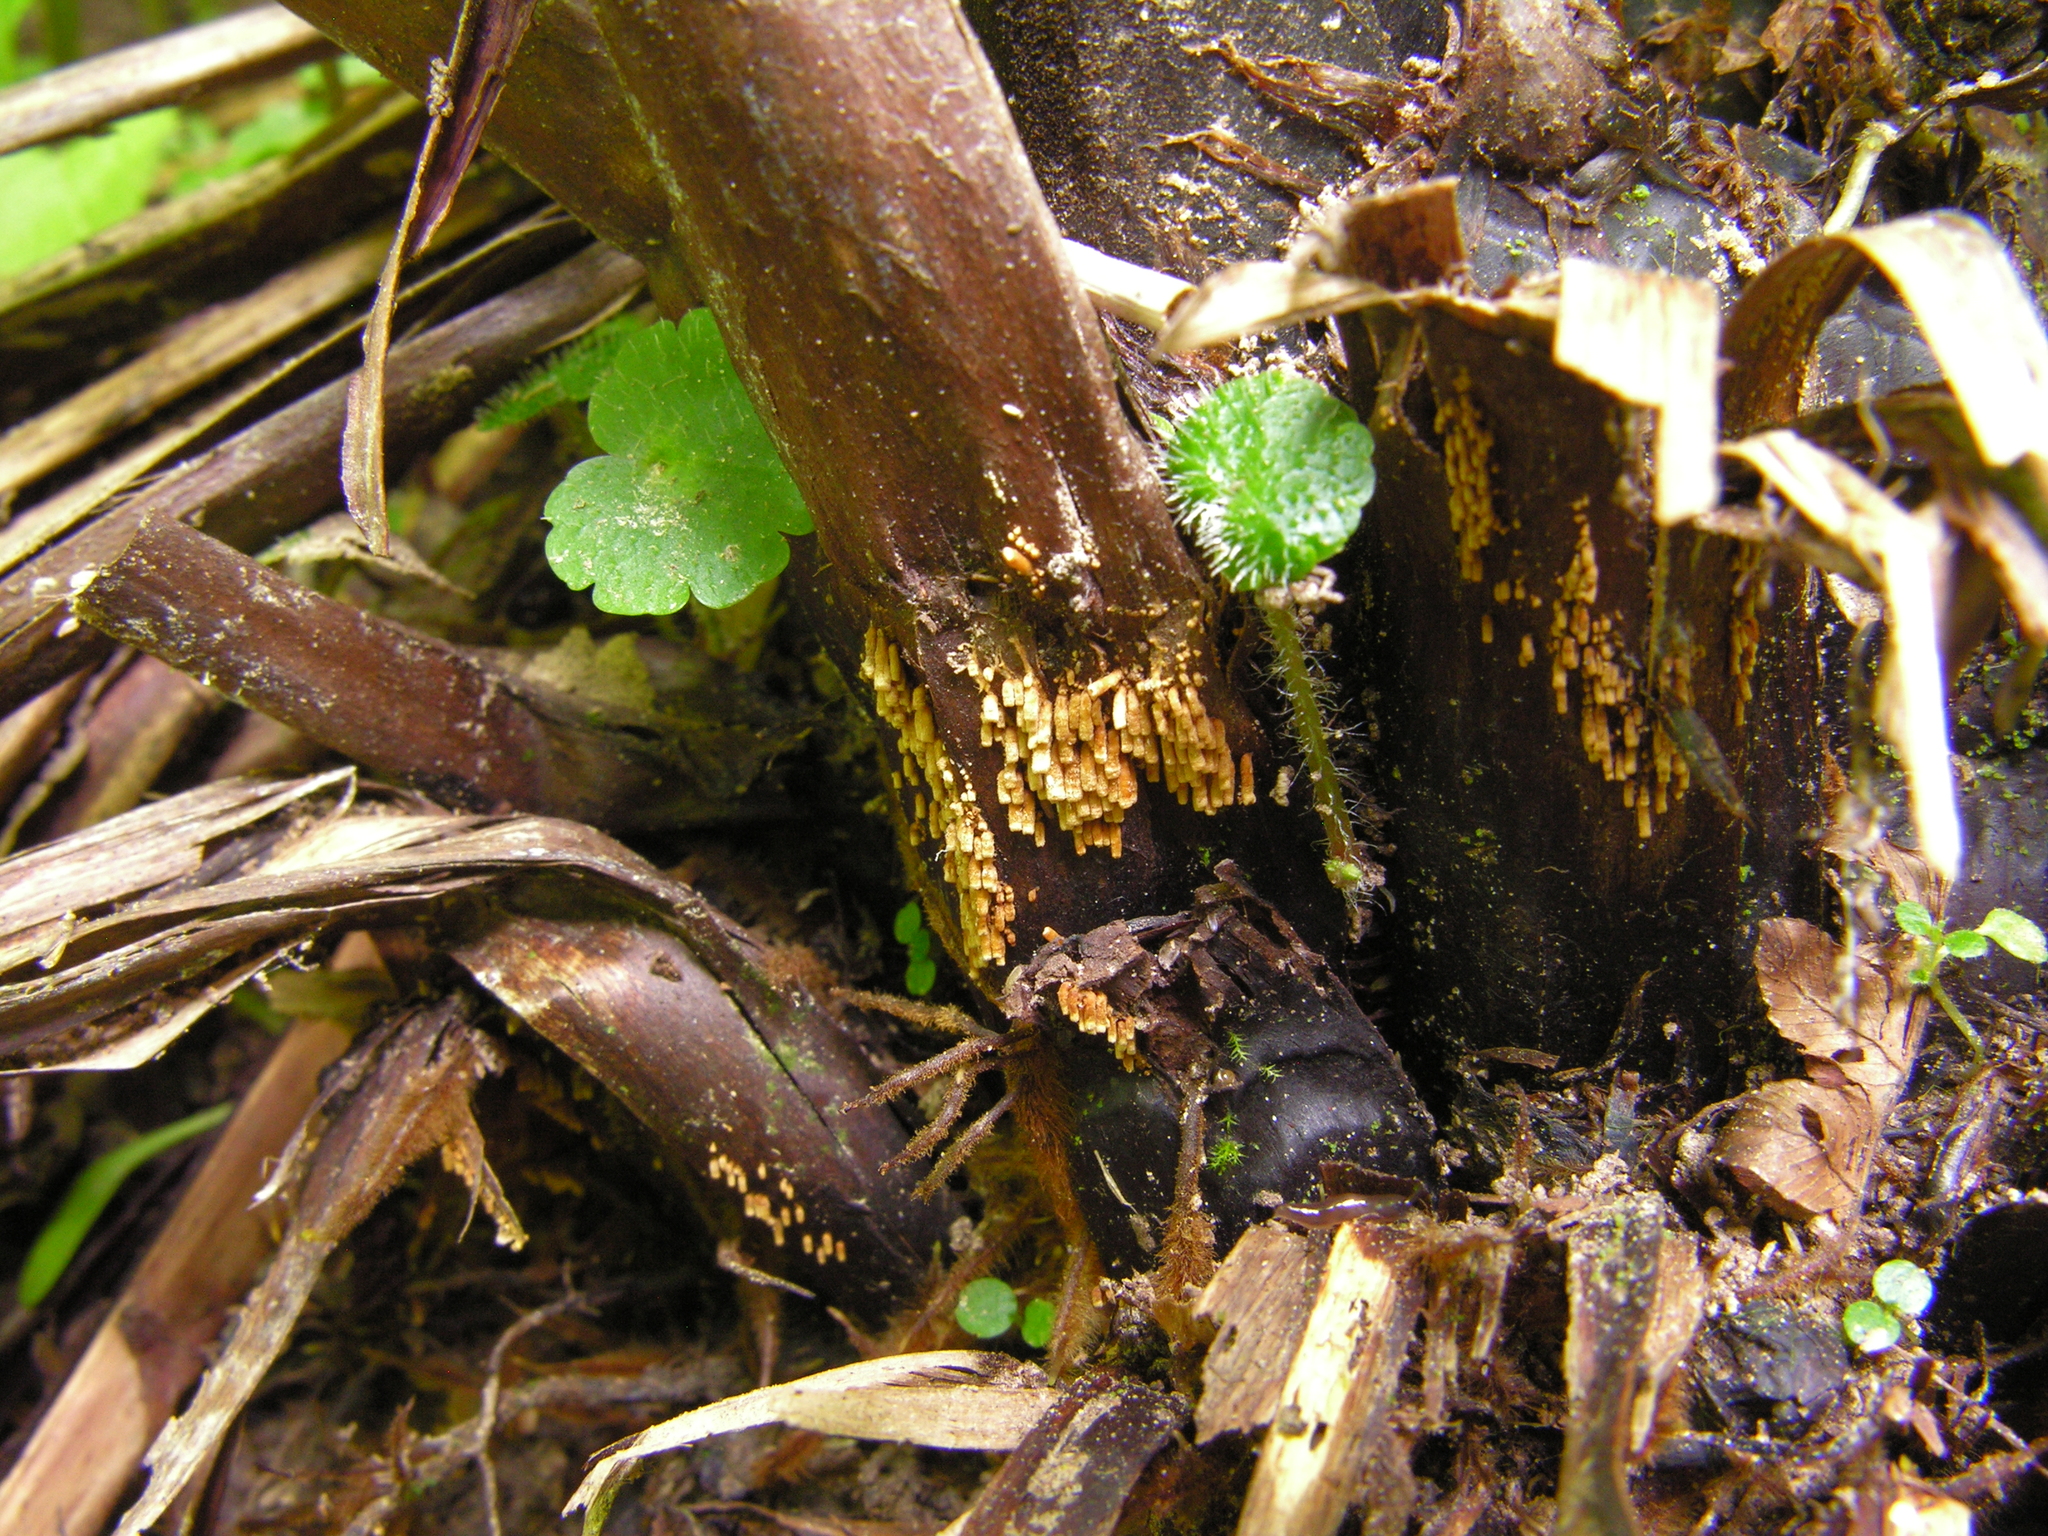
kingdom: Fungi
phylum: Basidiomycota
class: Agaricomycetes
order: Agaricales
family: Niaceae
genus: Woldmaria
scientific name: Woldmaria filicina
